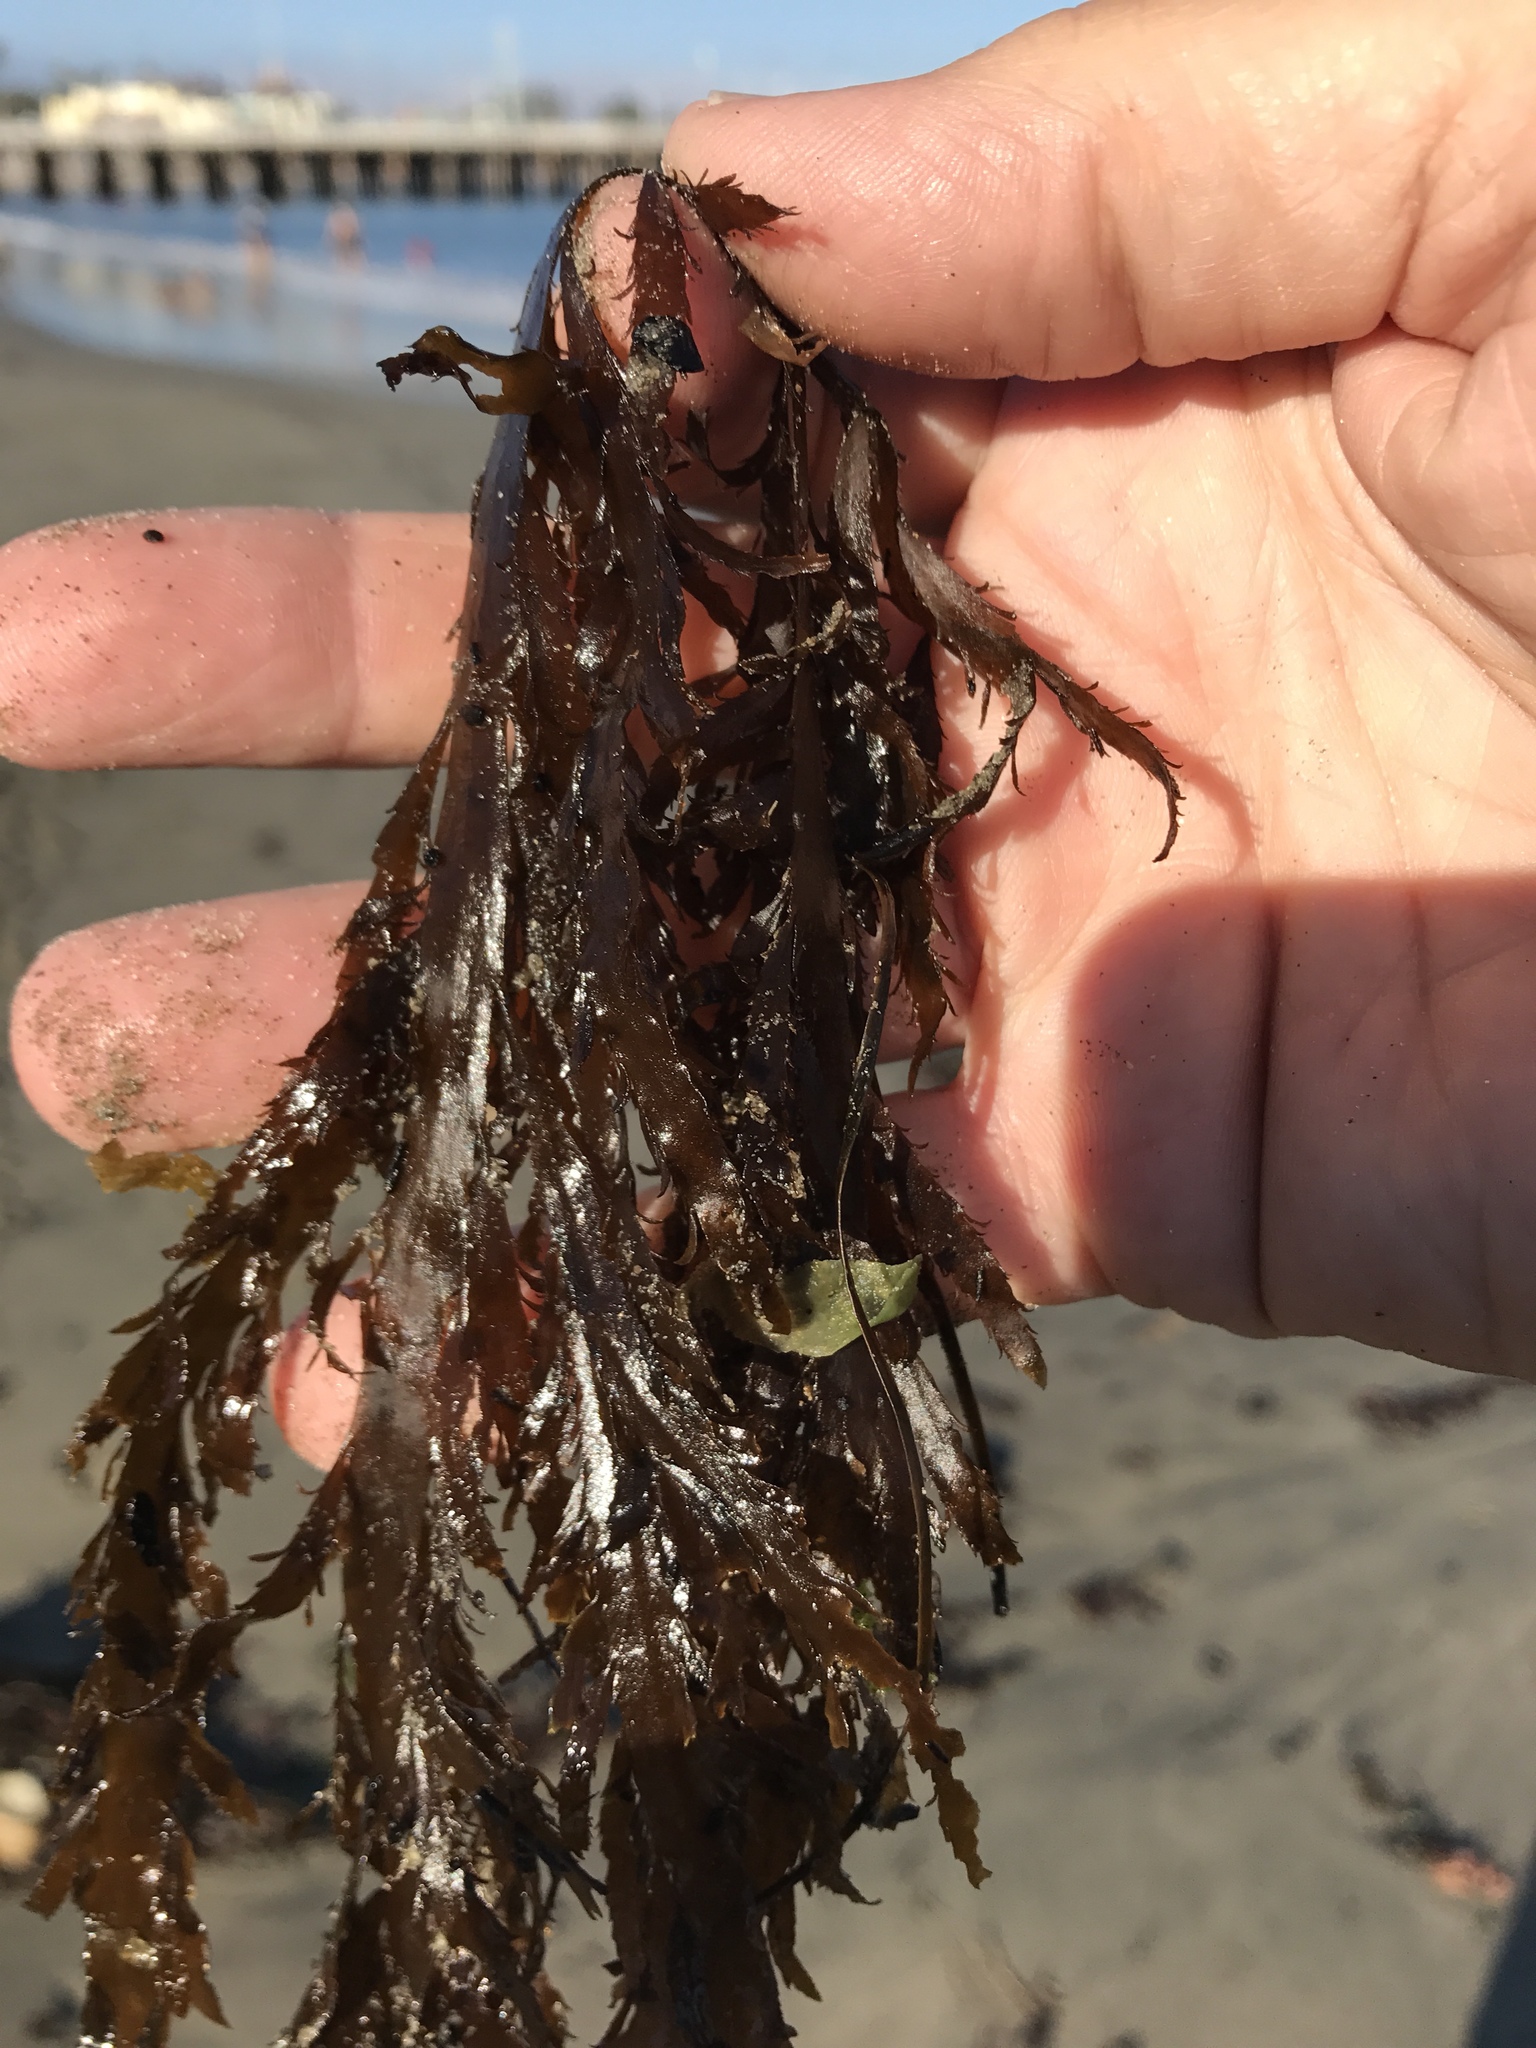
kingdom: Chromista
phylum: Ochrophyta
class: Phaeophyceae
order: Desmarestiales
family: Desmarestiaceae
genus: Desmarestia
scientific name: Desmarestia ligulata
